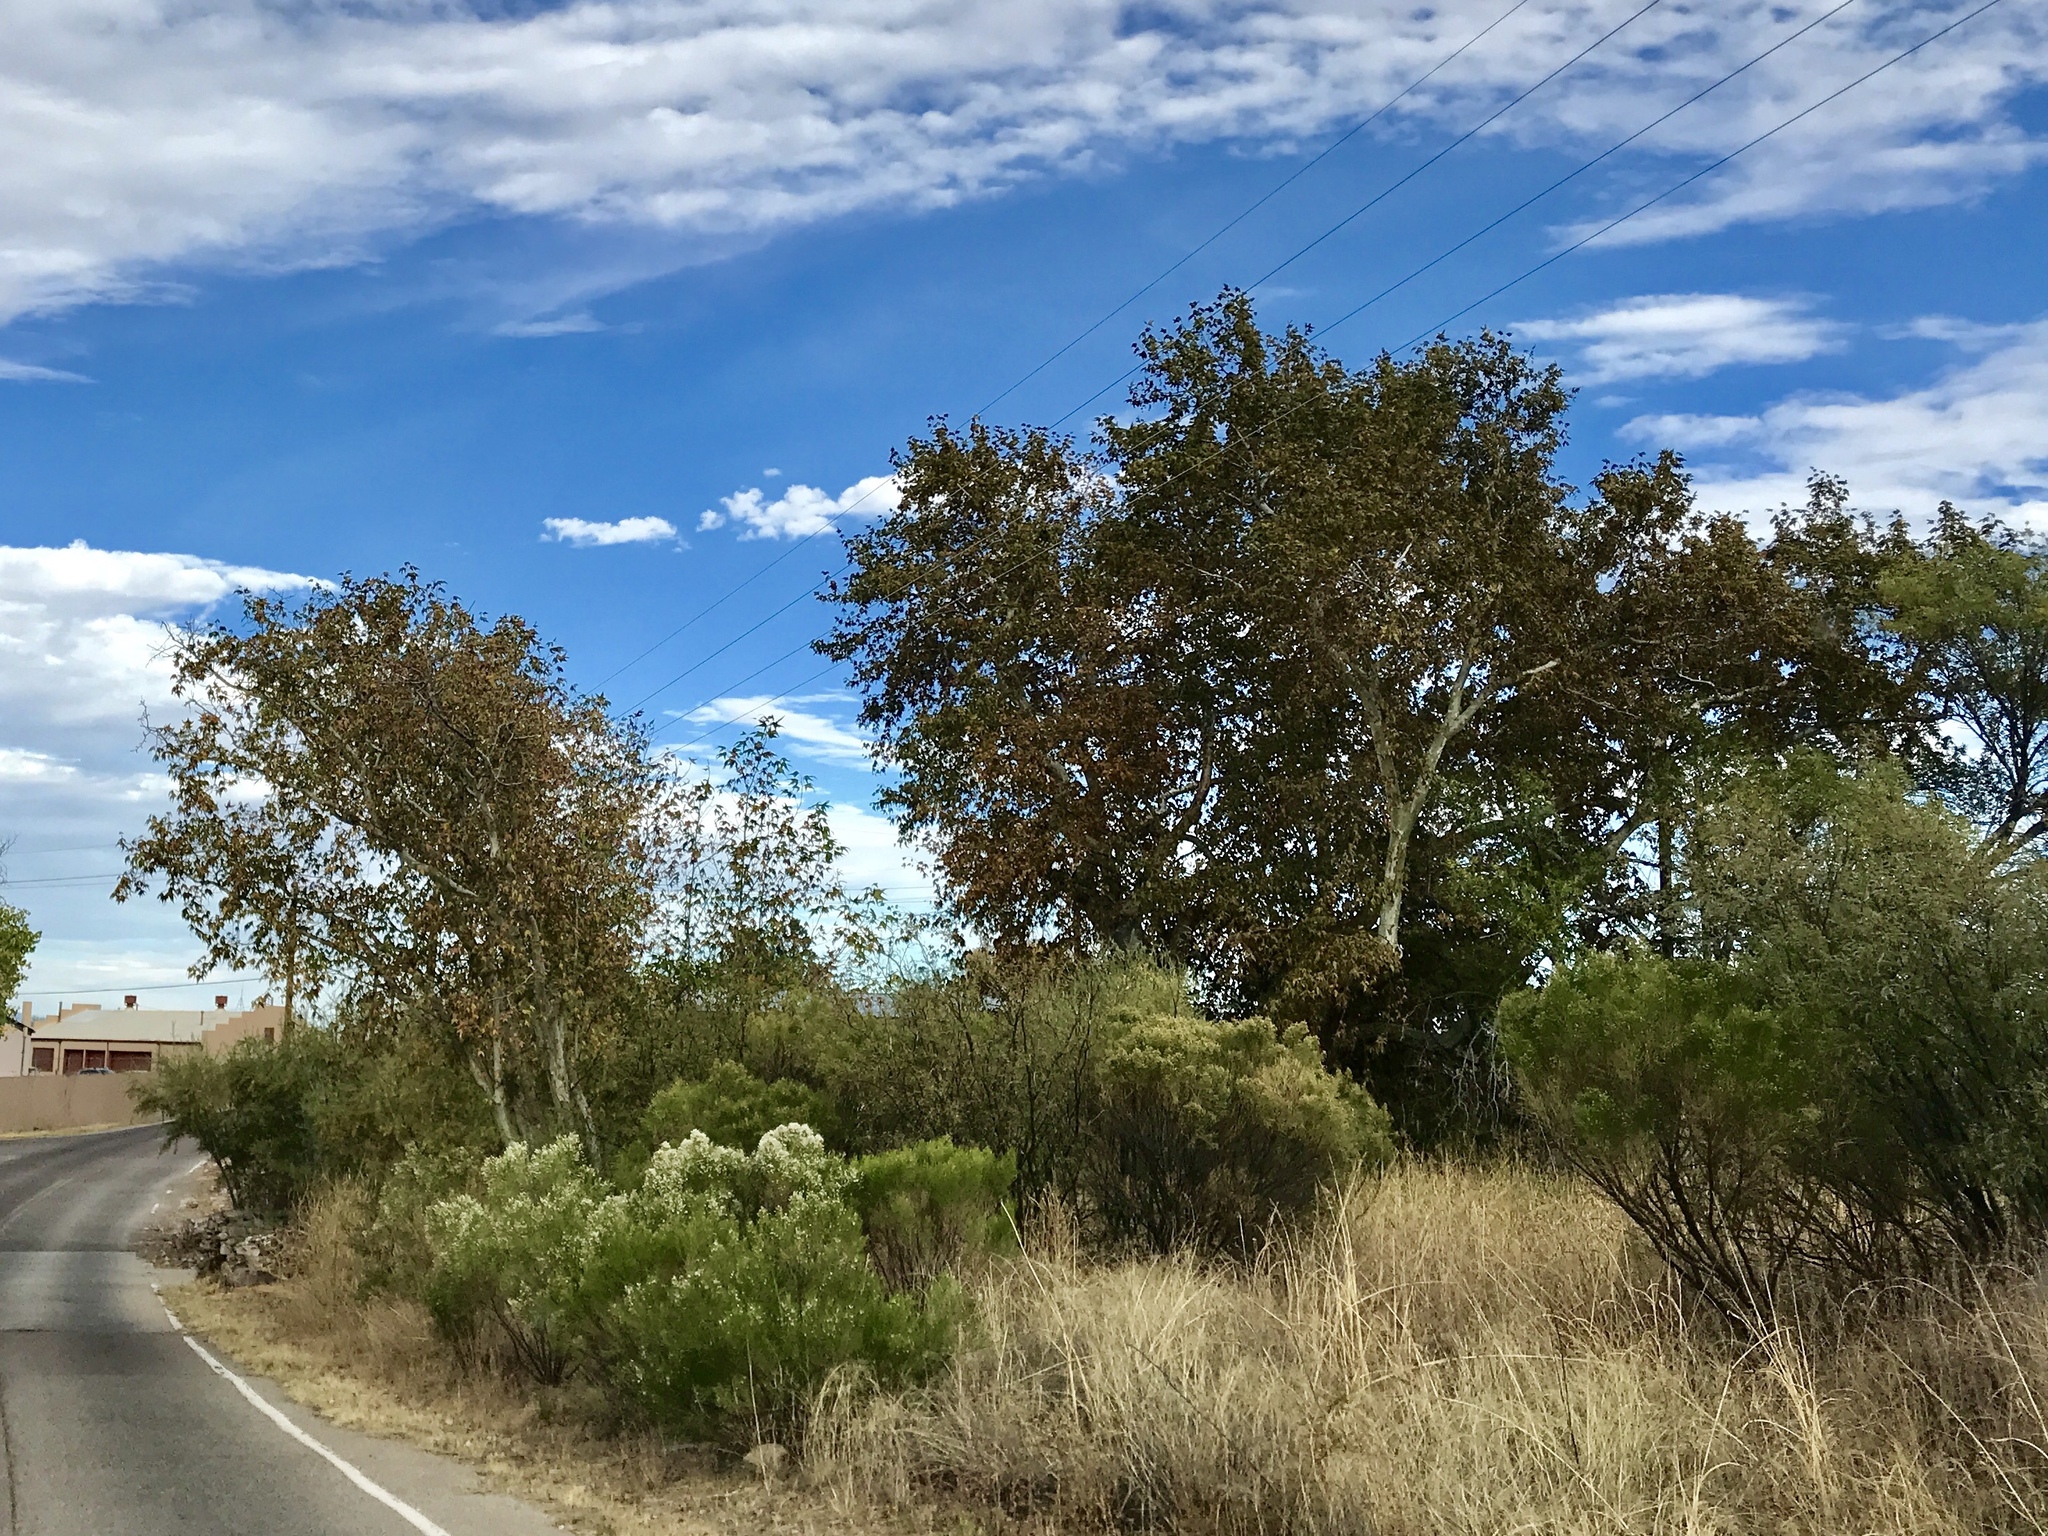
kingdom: Plantae
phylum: Tracheophyta
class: Magnoliopsida
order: Proteales
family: Platanaceae
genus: Platanus
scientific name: Platanus wrightii
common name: Arizona sycamore
